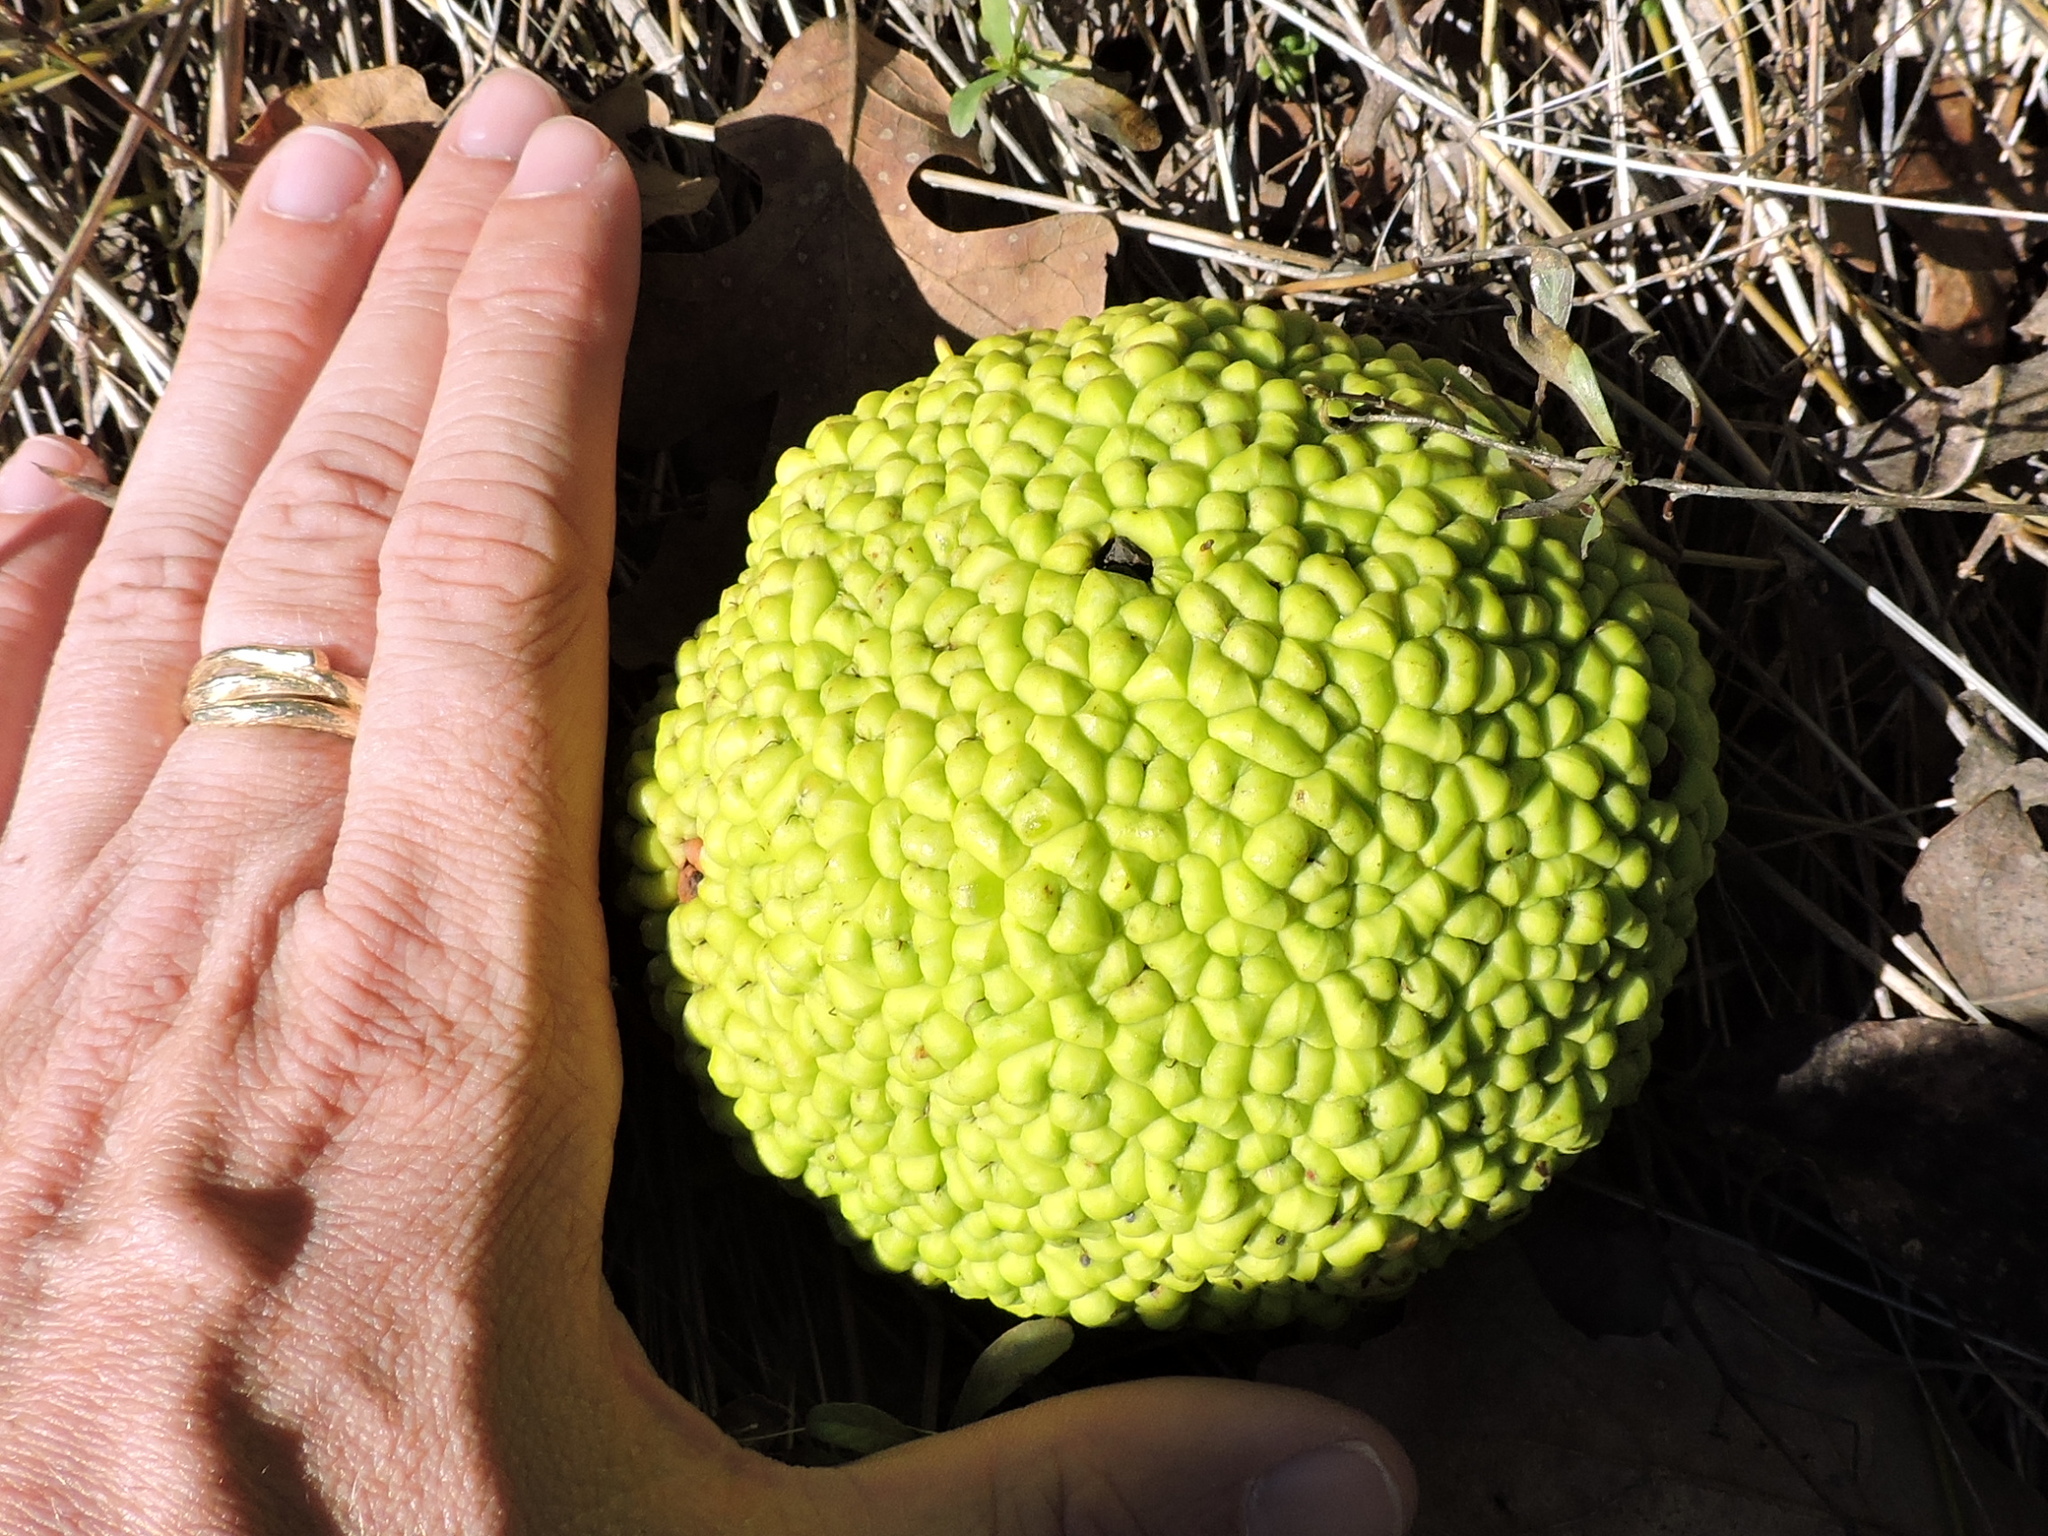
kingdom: Plantae
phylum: Tracheophyta
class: Magnoliopsida
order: Rosales
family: Moraceae
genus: Maclura
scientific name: Maclura pomifera
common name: Osage-orange
